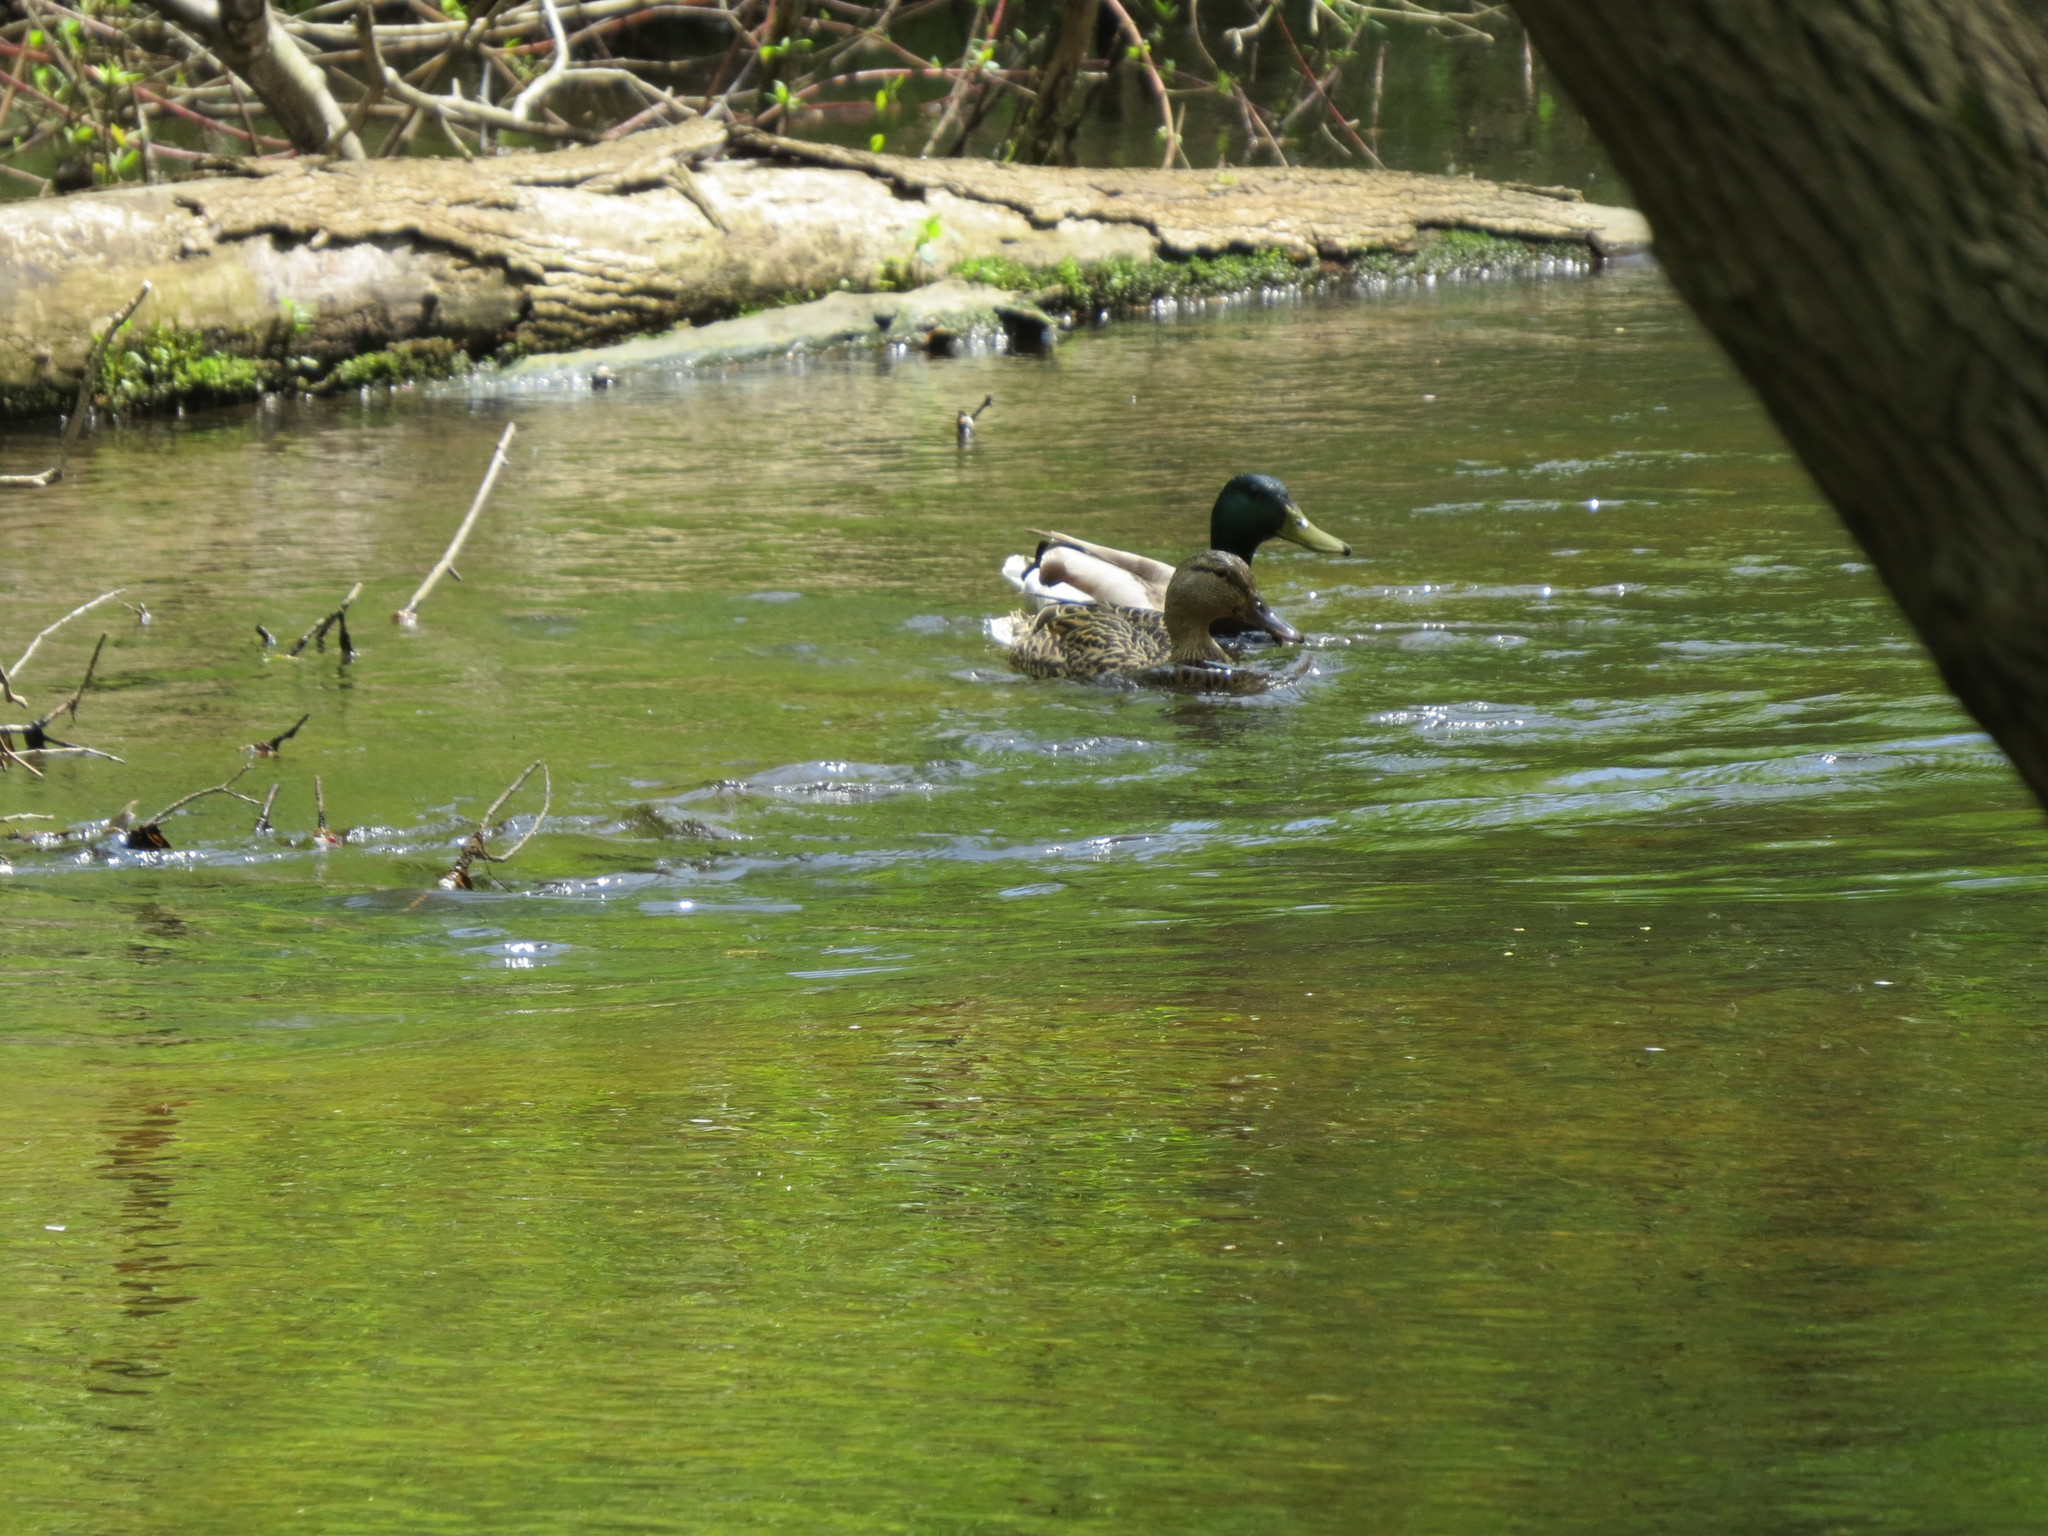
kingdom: Animalia
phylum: Chordata
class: Aves
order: Anseriformes
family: Anatidae
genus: Anas
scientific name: Anas platyrhynchos
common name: Mallard
